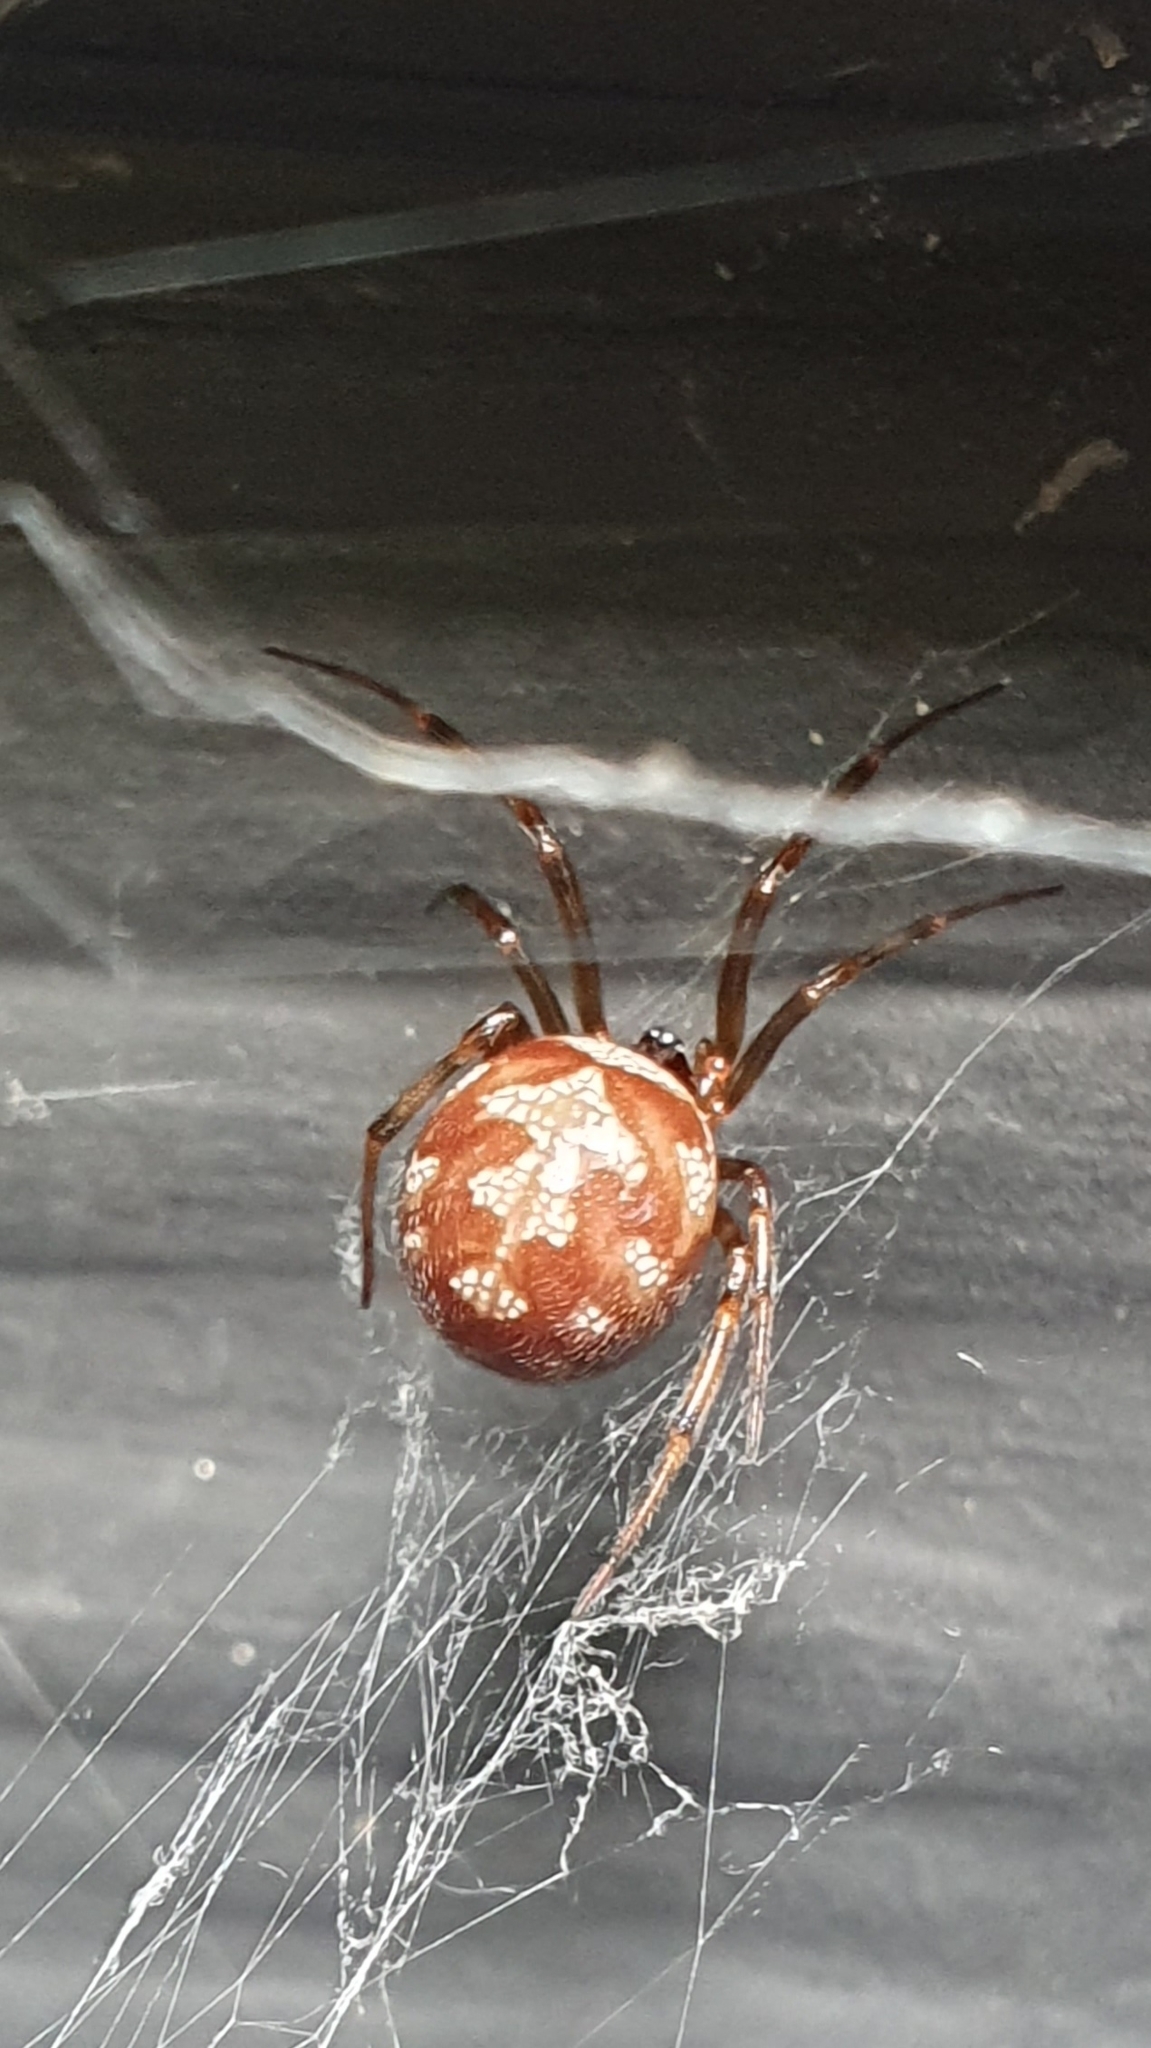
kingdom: Animalia
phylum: Arthropoda
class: Arachnida
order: Araneae
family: Theridiidae
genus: Steatoda
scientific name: Steatoda triangulosa
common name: Triangulate bud spider
